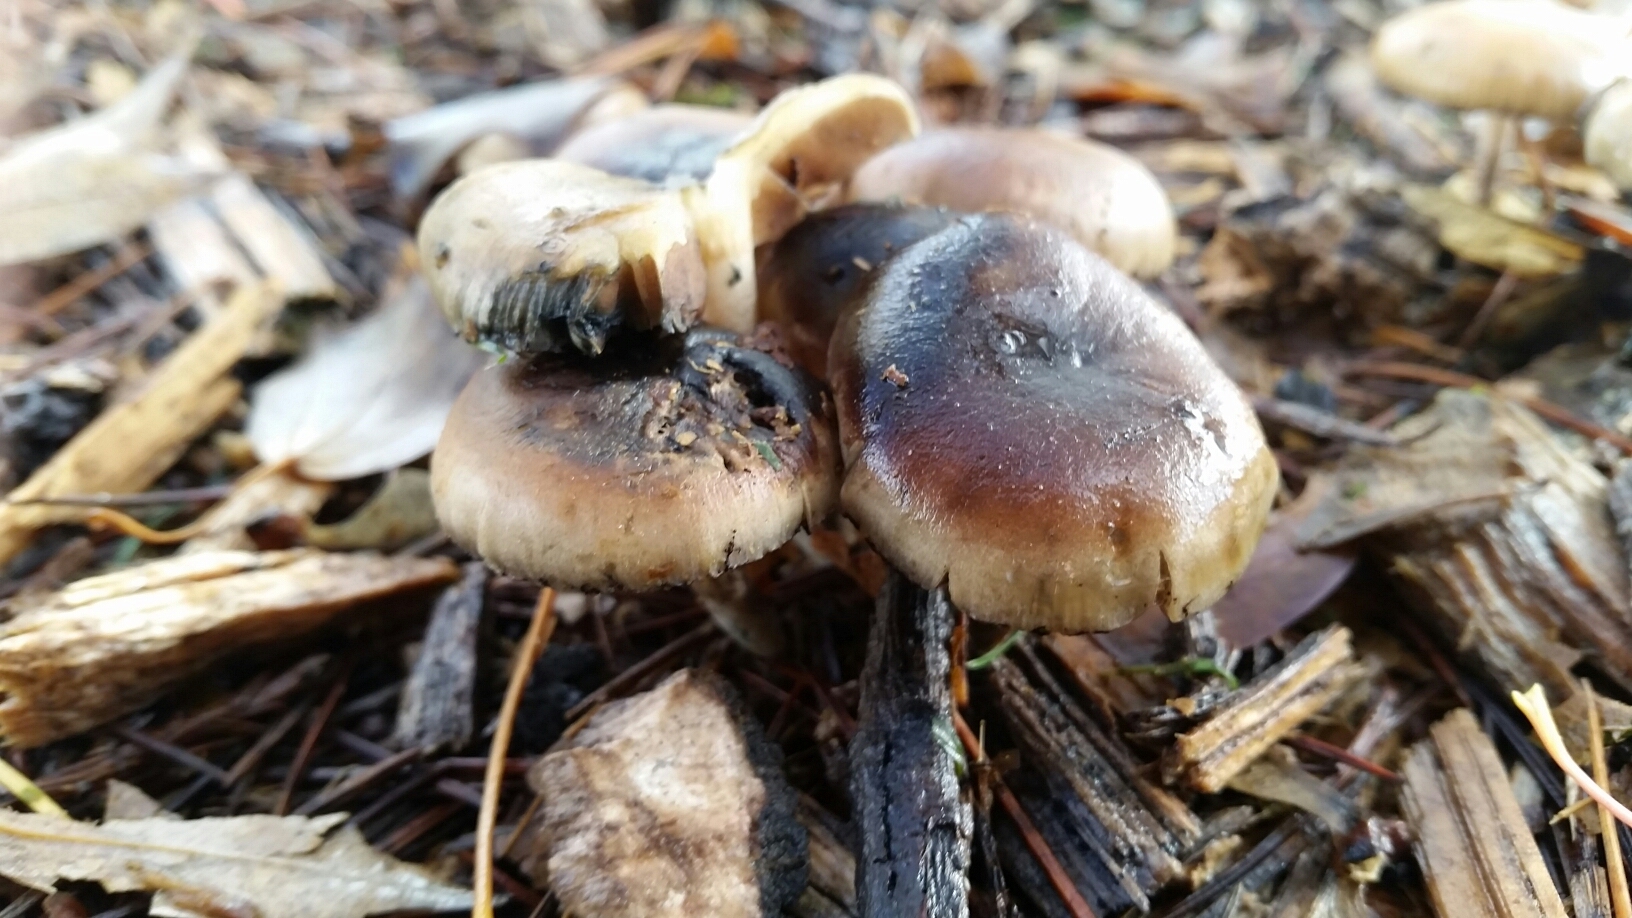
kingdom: Fungi
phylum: Basidiomycota
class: Agaricomycetes
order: Agaricales
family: Hymenogastraceae
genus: Psilocybe
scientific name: Psilocybe allenii
